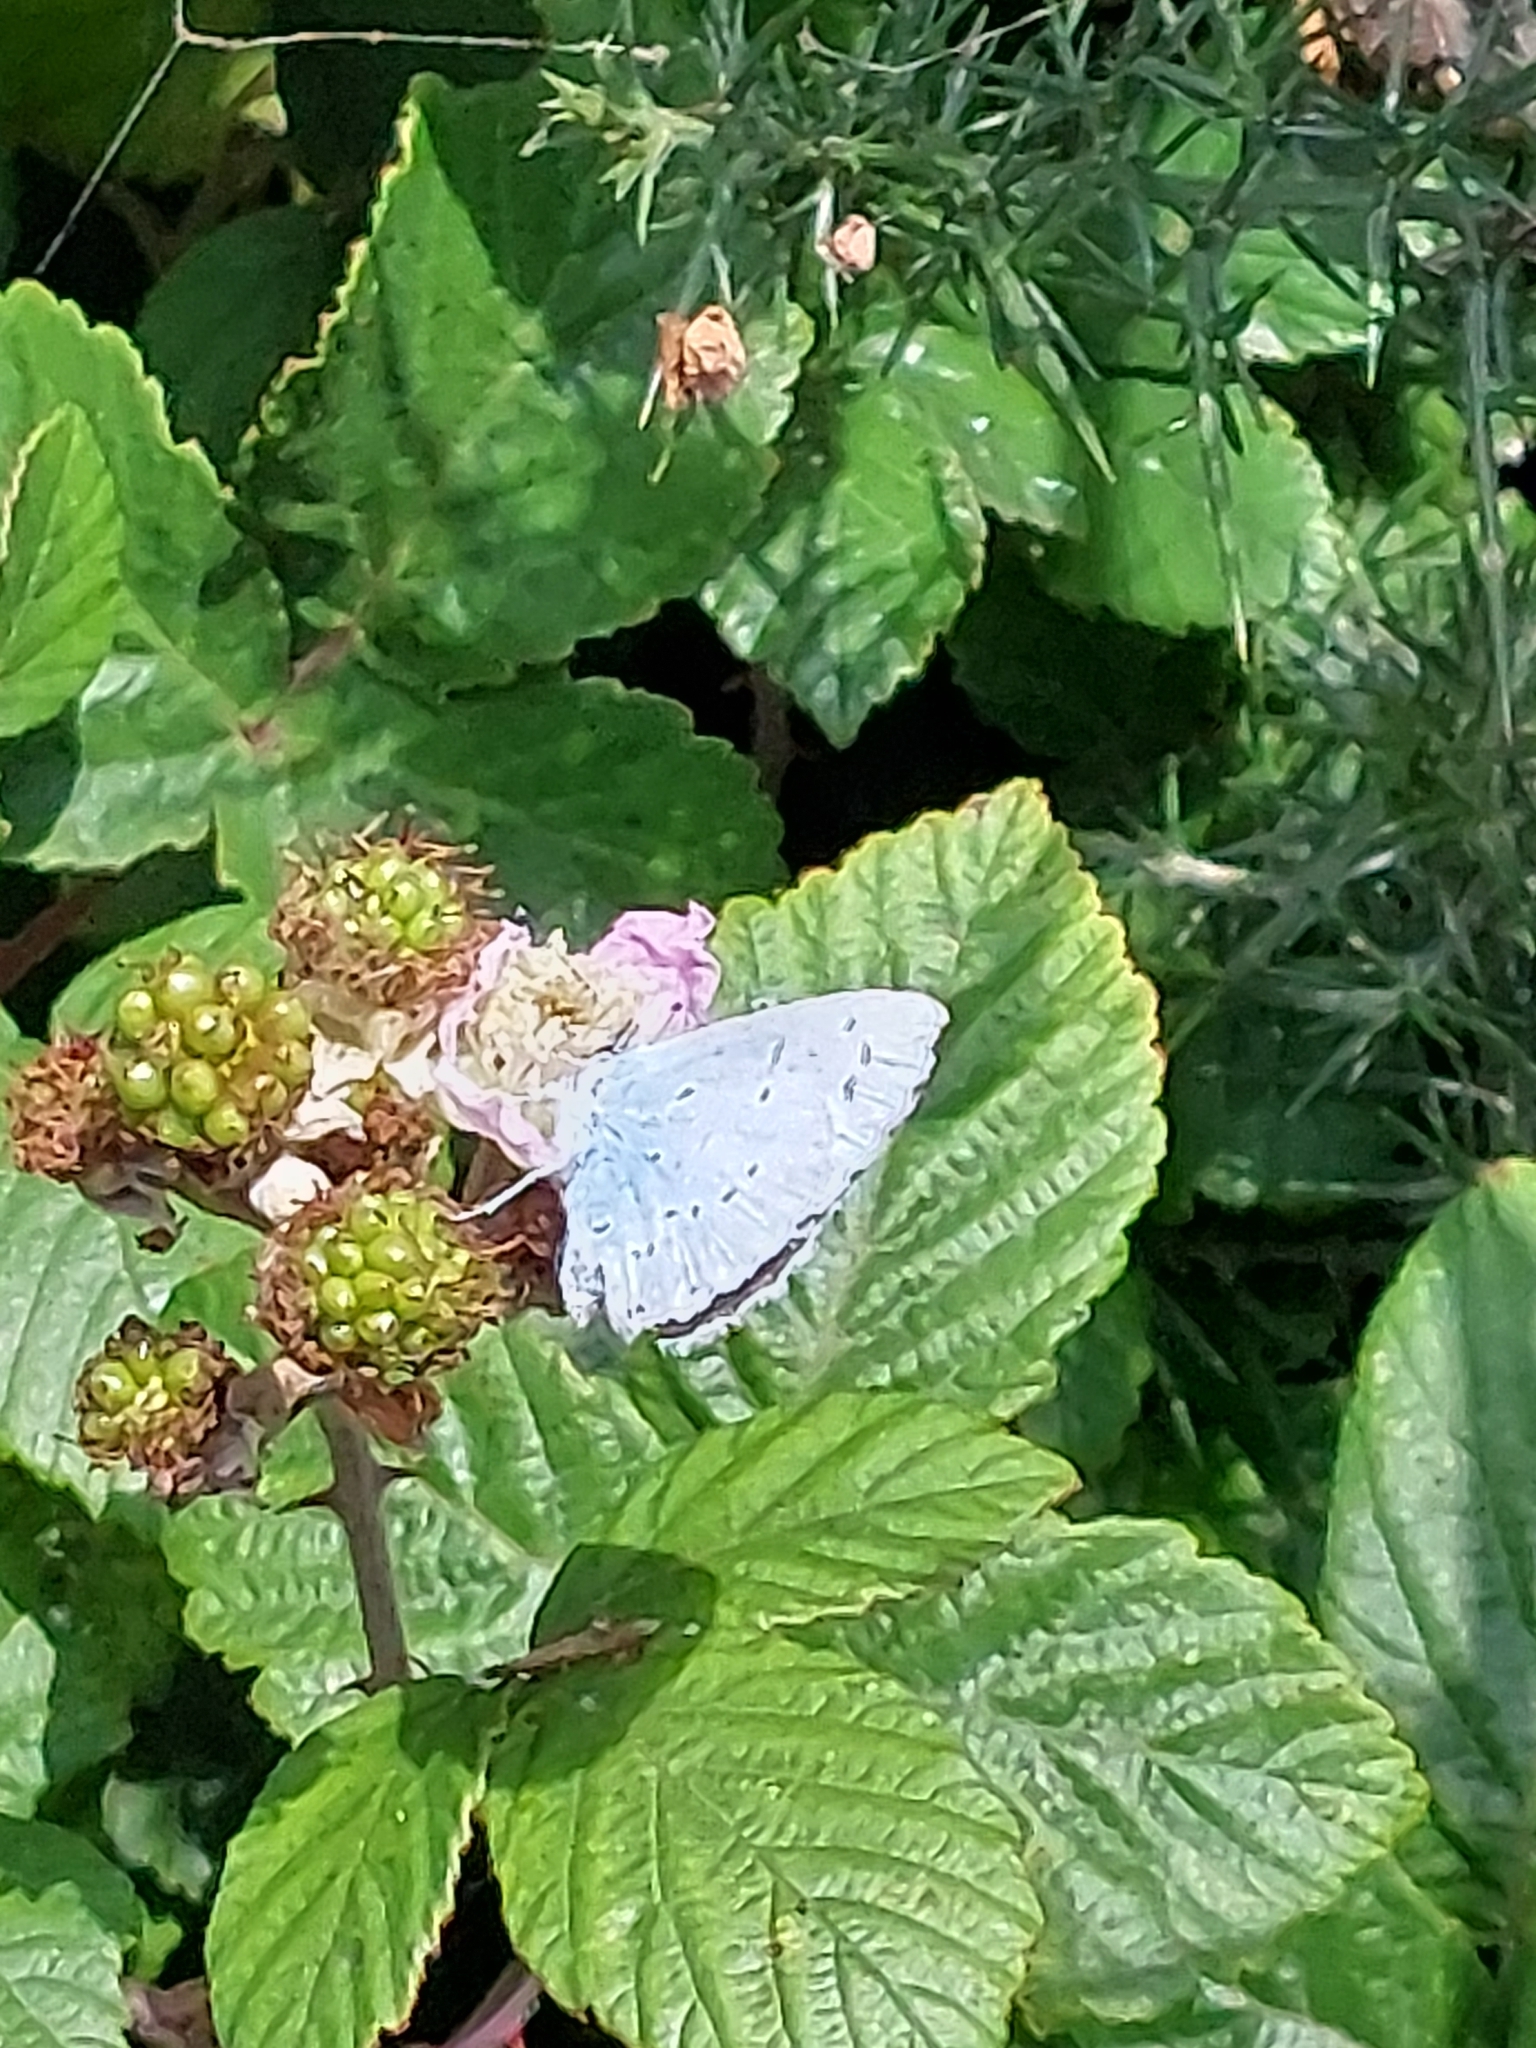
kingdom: Animalia
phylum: Arthropoda
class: Insecta
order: Lepidoptera
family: Lycaenidae
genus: Celastrina
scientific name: Celastrina argiolus
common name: Holly blue
